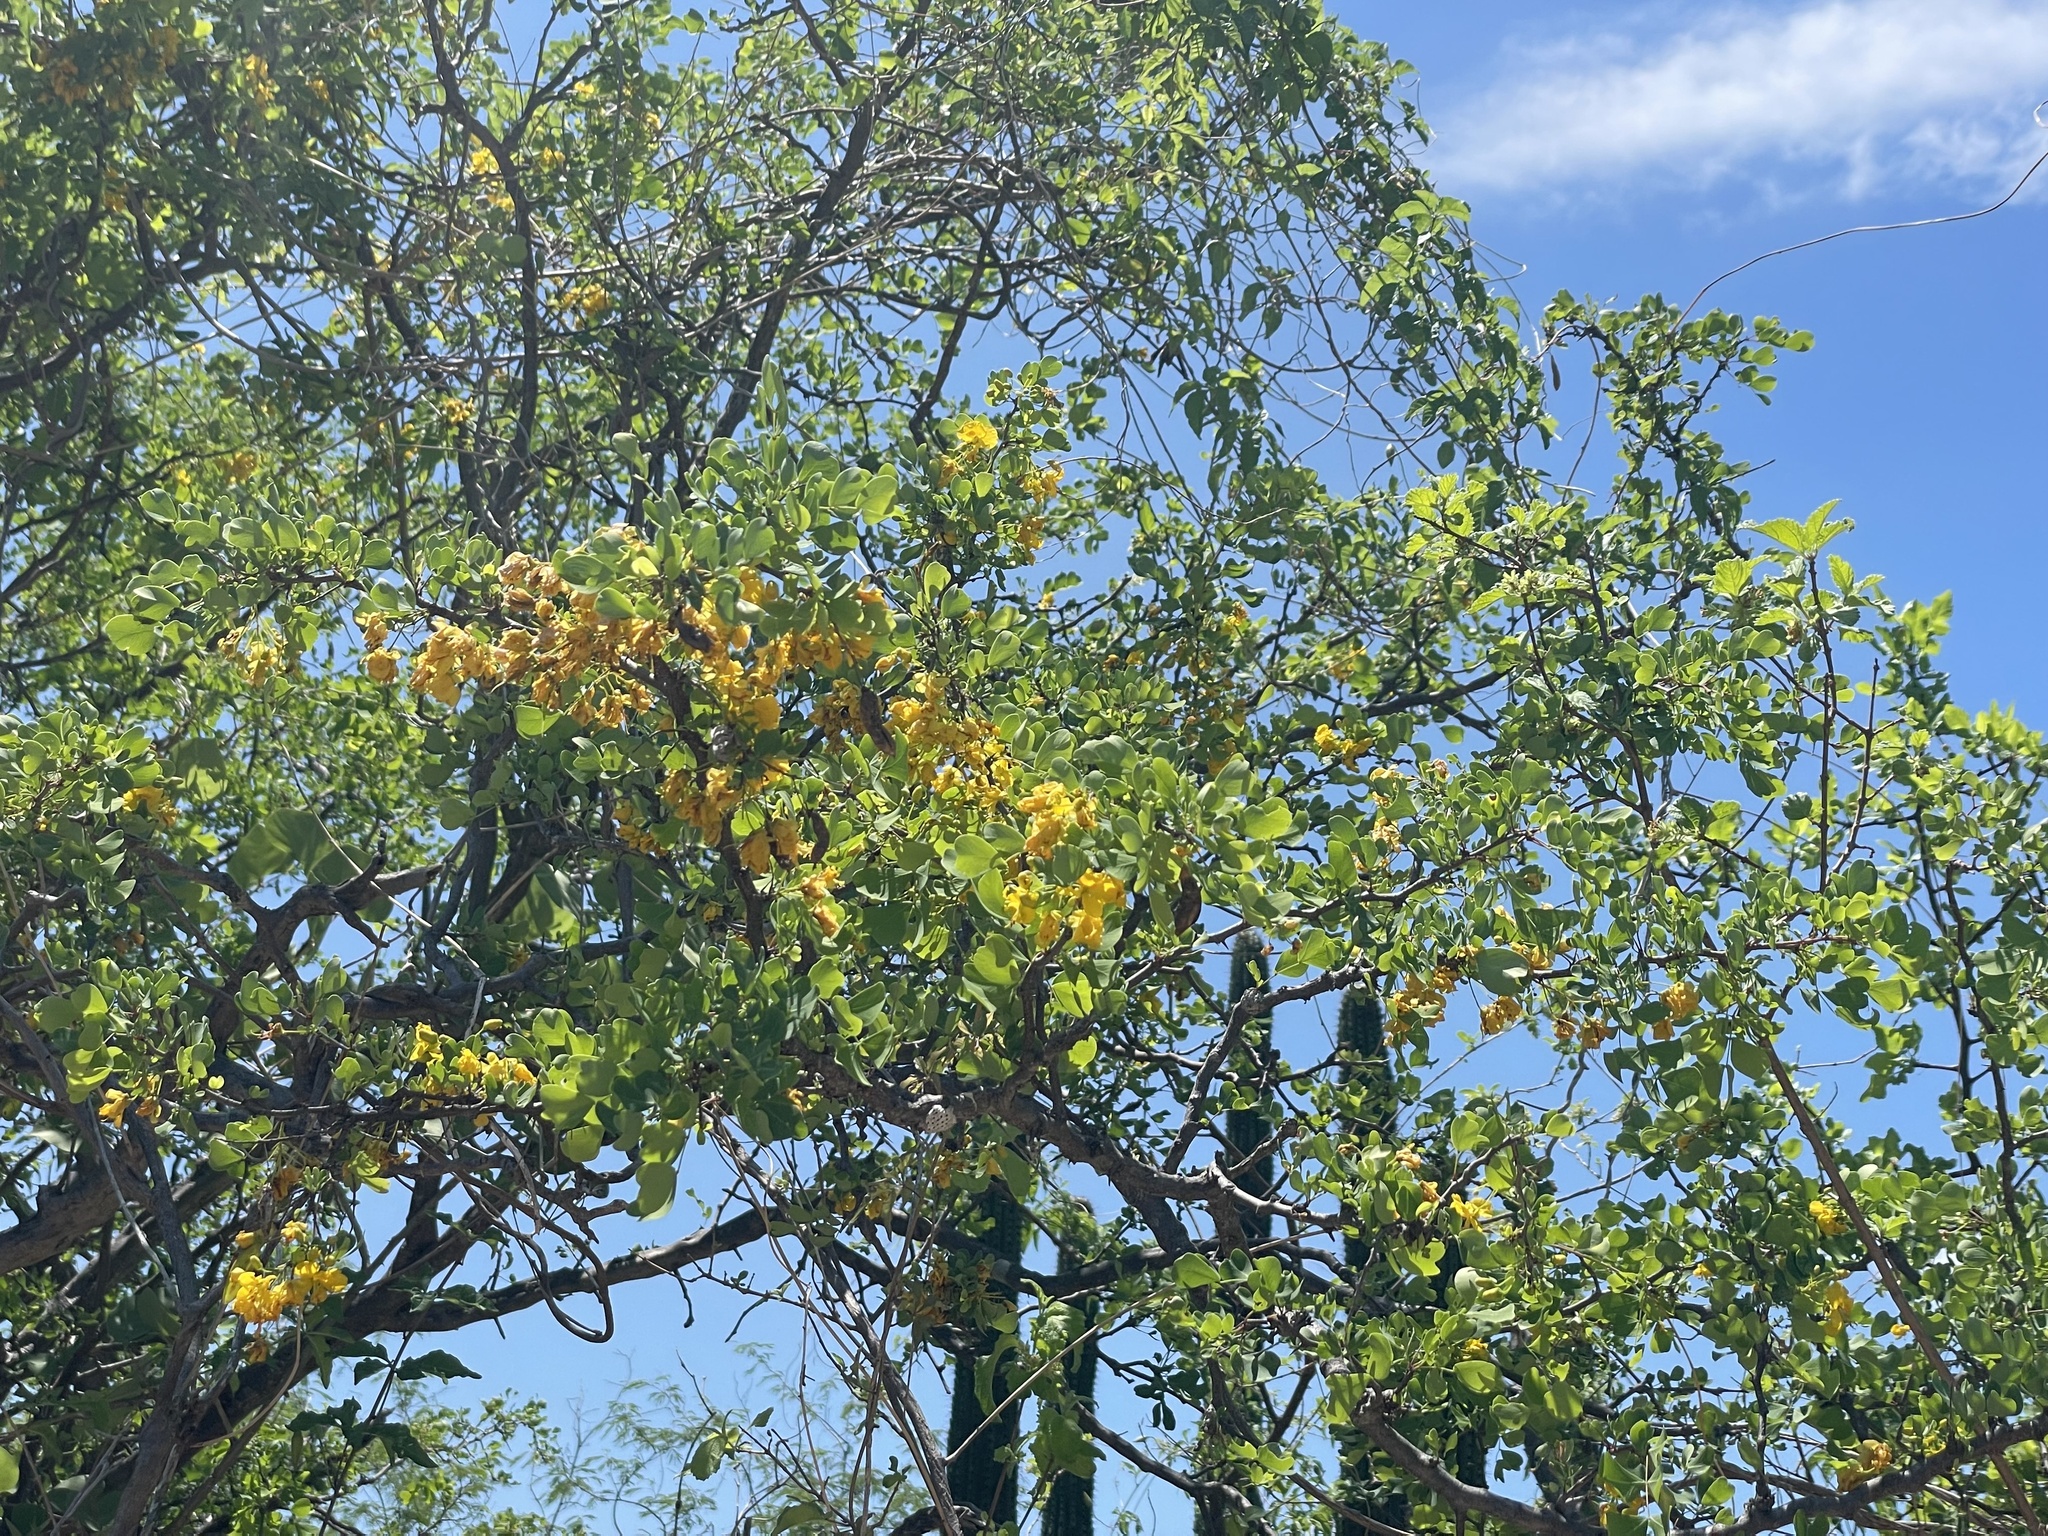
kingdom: Plantae
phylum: Tracheophyta
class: Magnoliopsida
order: Fabales
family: Fabaceae
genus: Haematoxylum
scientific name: Haematoxylum brasiletto
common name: Peachwood
